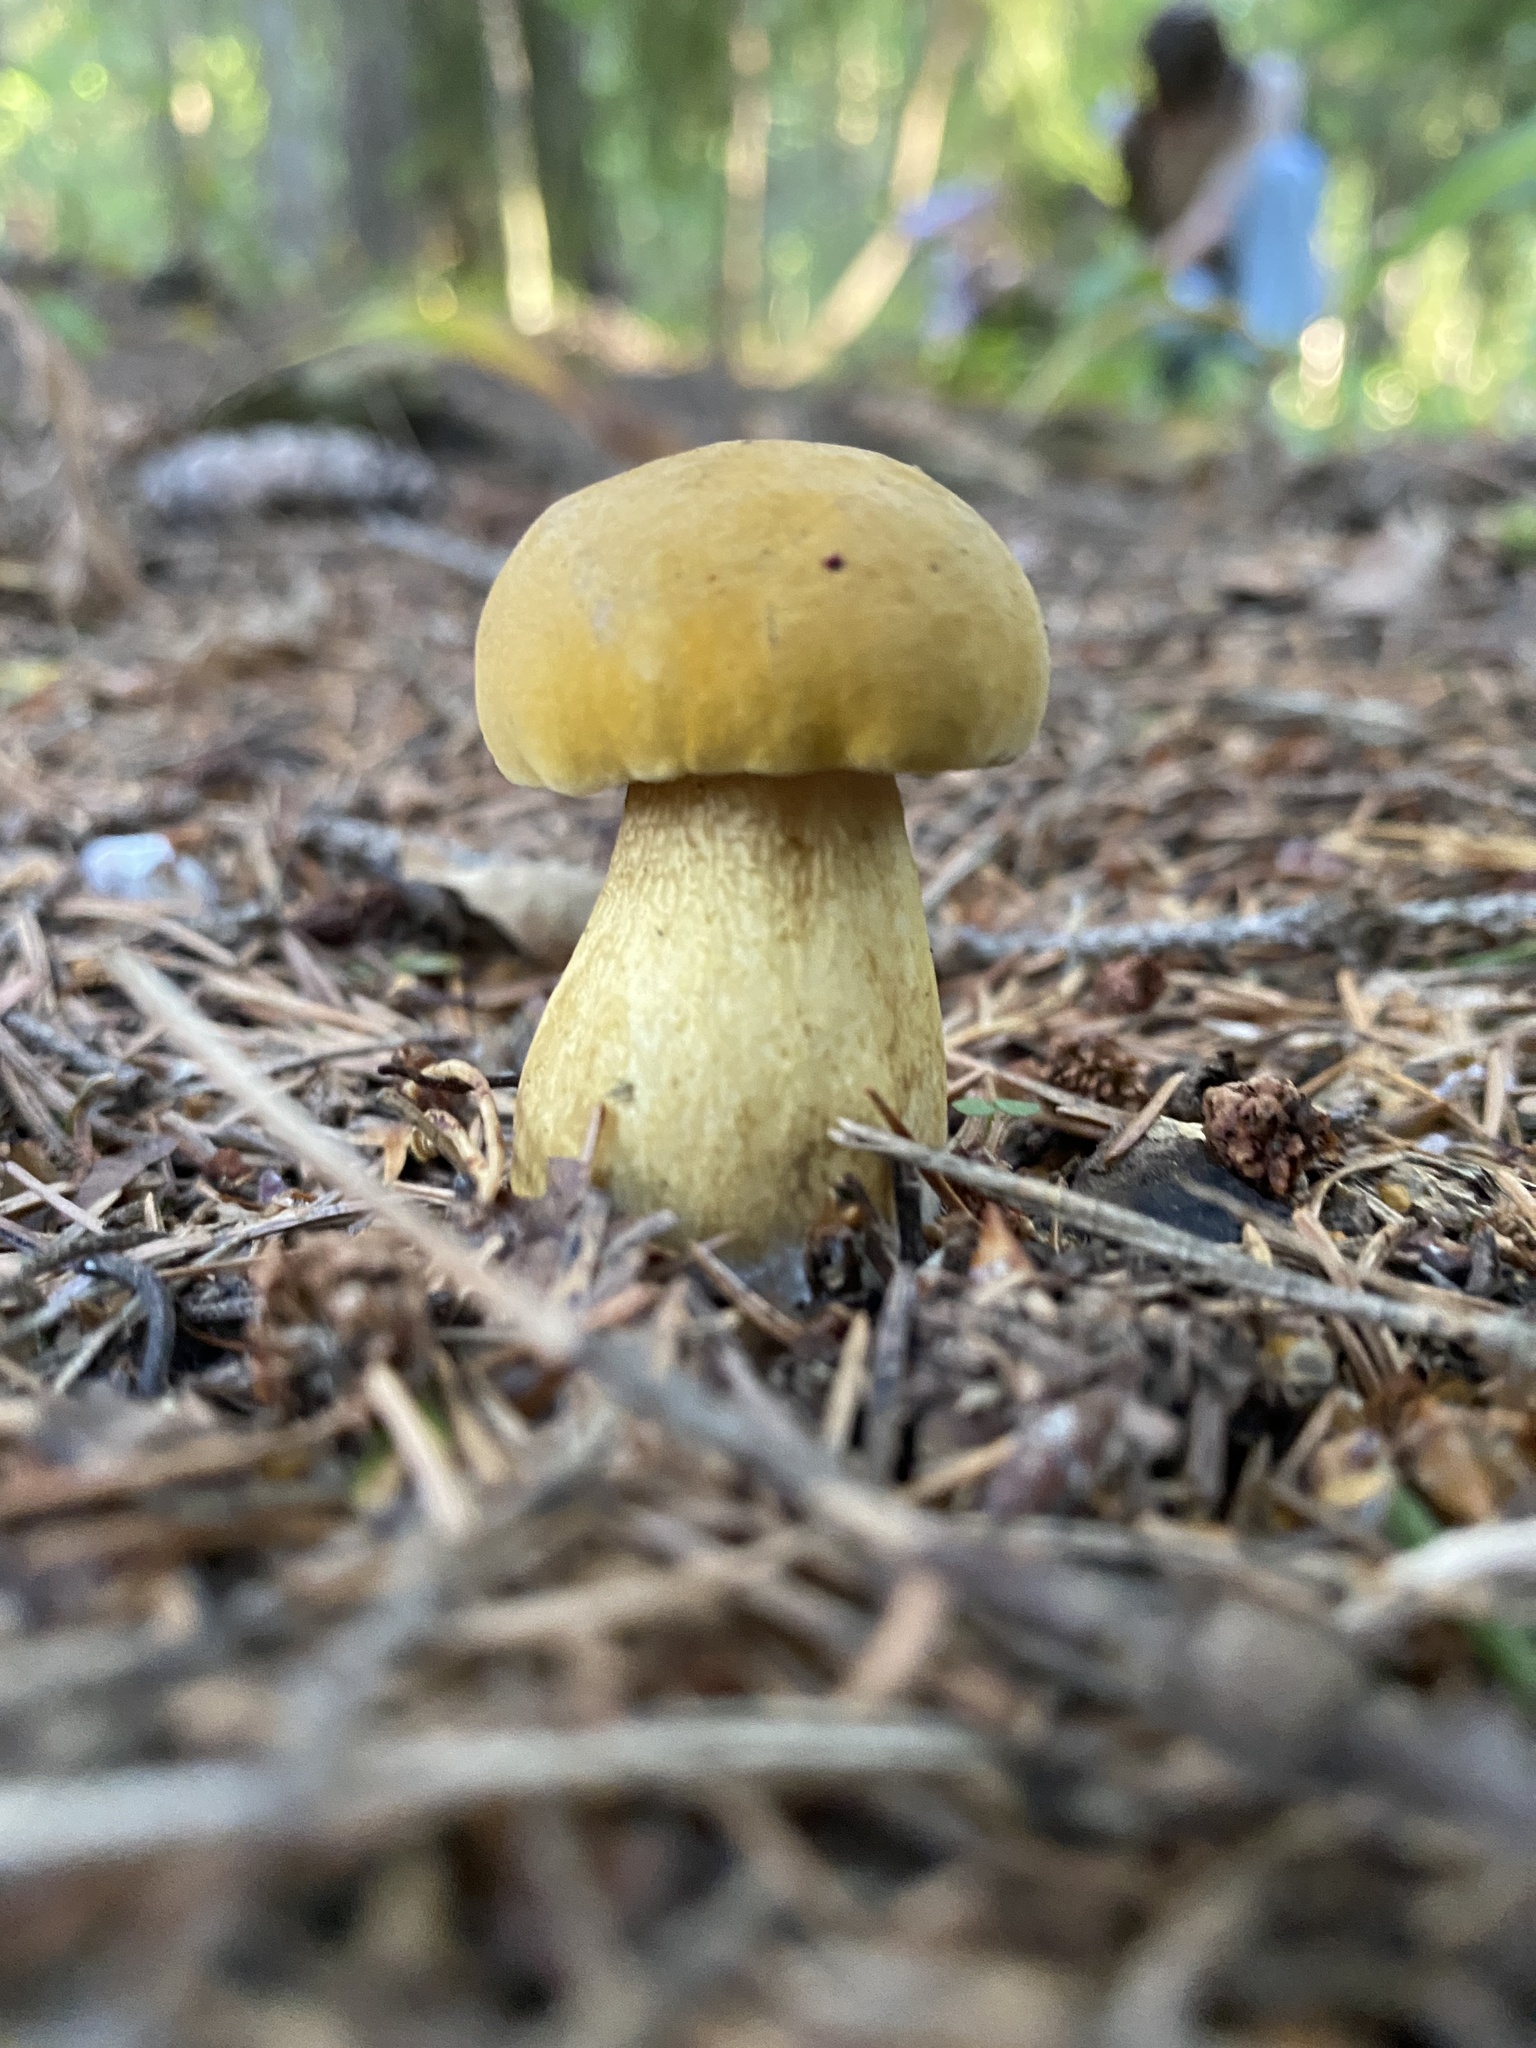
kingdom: Fungi
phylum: Basidiomycota
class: Agaricomycetes
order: Boletales
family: Boletaceae
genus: Tylopilus
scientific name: Tylopilus felleus
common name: Bitter bolete
